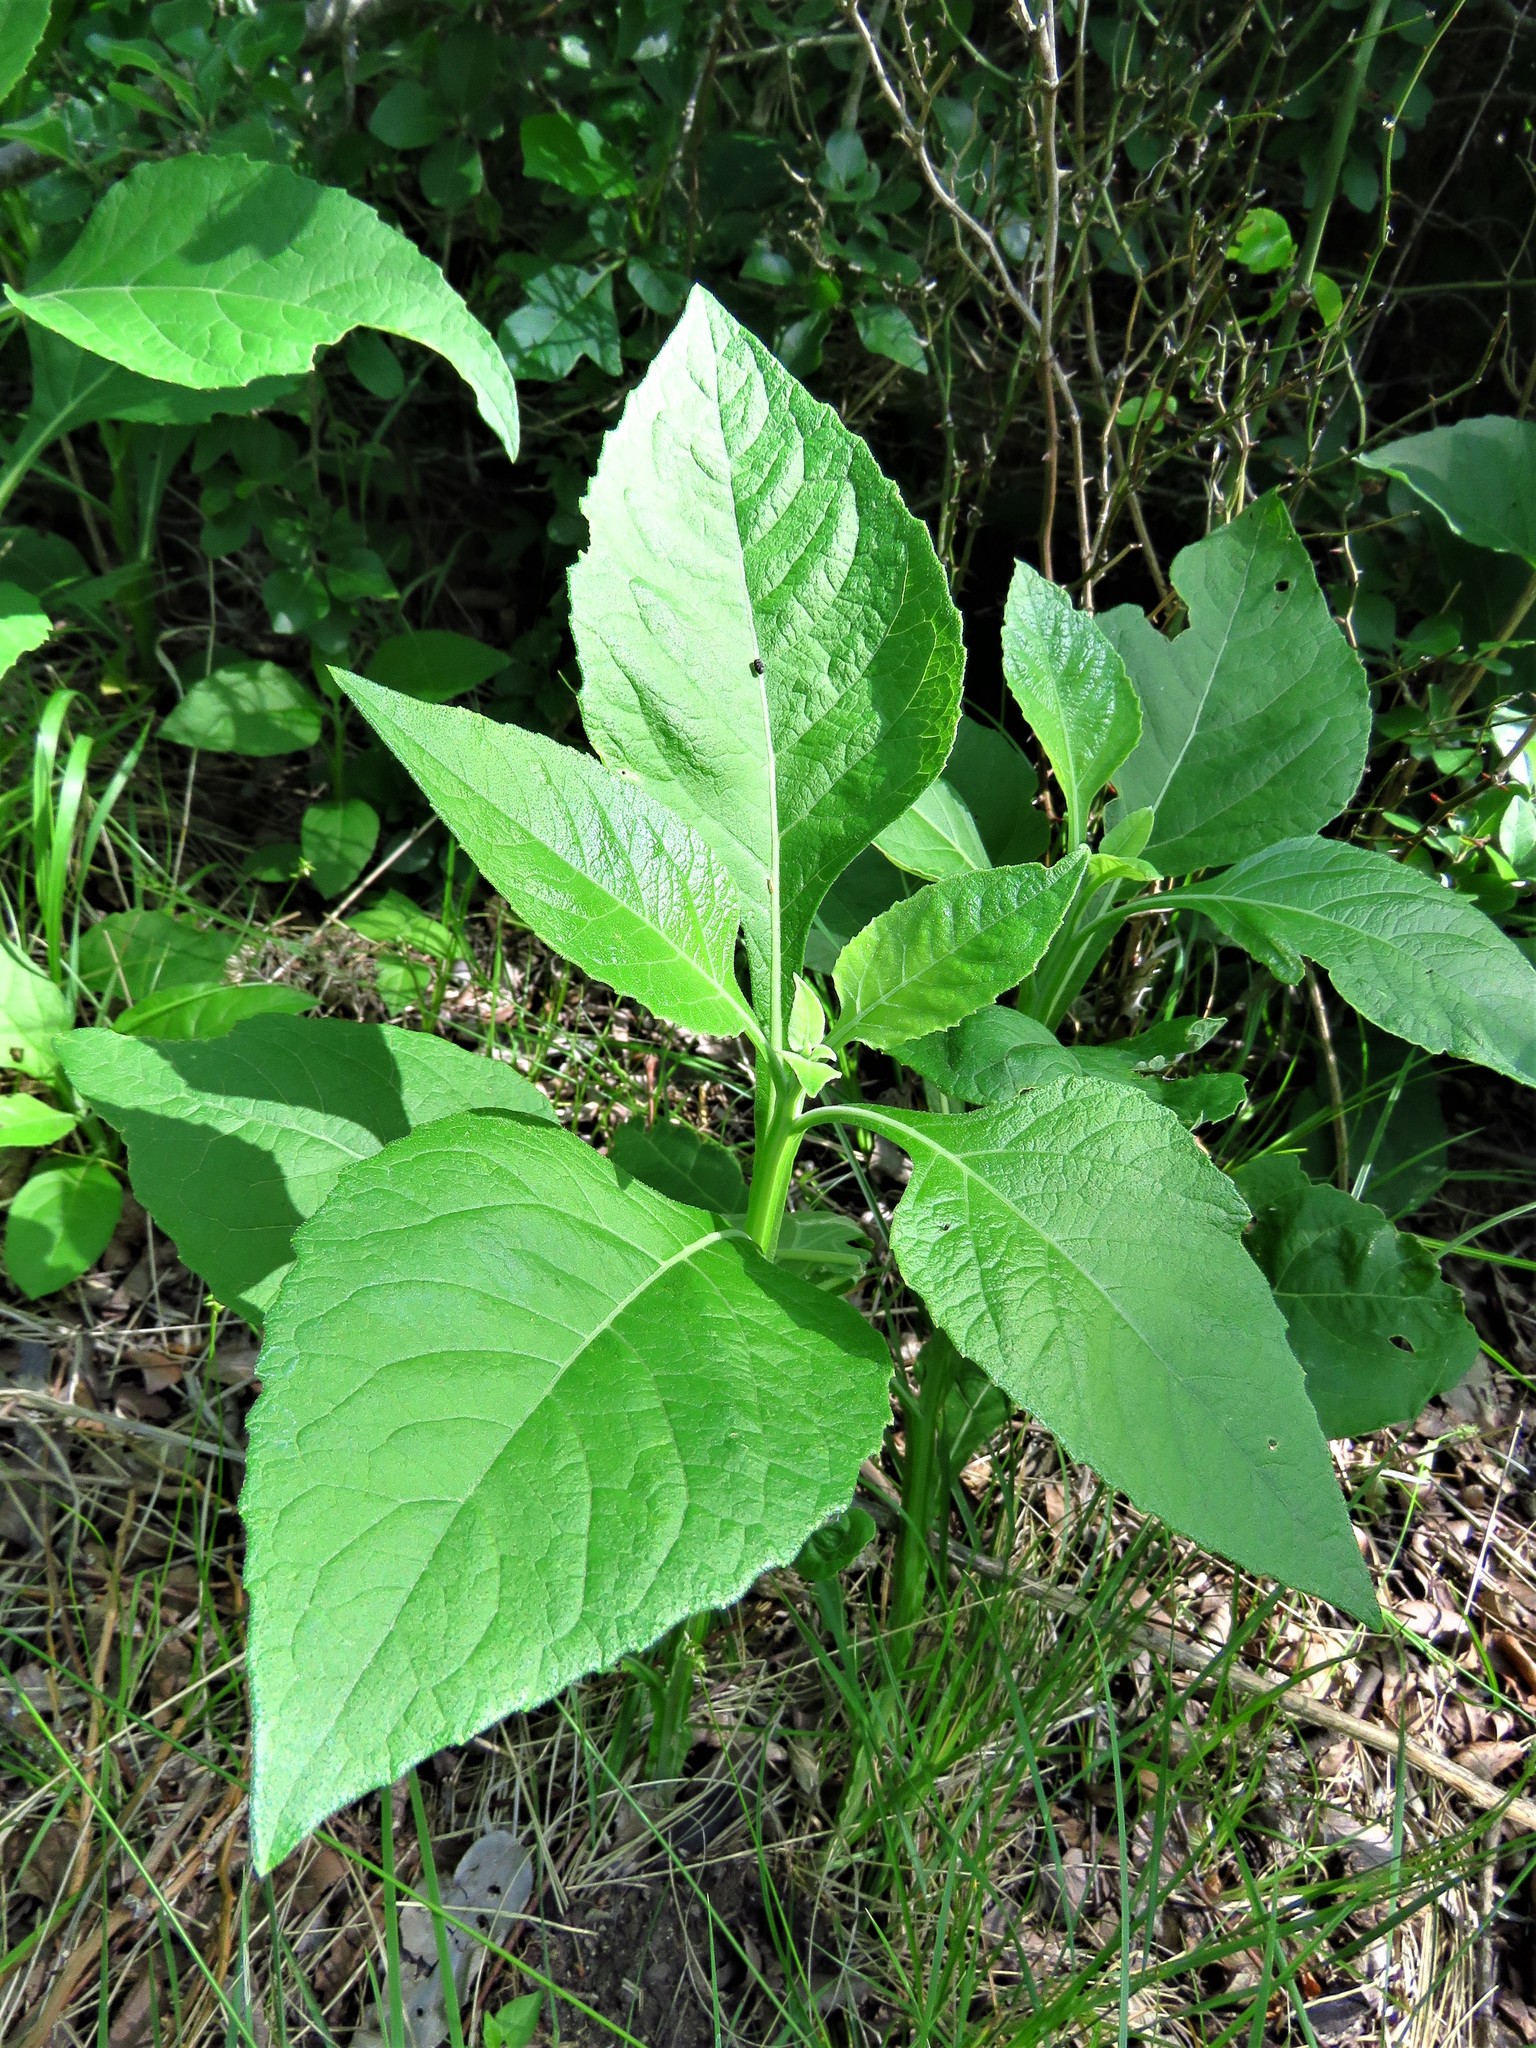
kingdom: Plantae
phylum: Tracheophyta
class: Magnoliopsida
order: Asterales
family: Asteraceae
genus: Verbesina
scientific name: Verbesina virginica
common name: Frostweed
